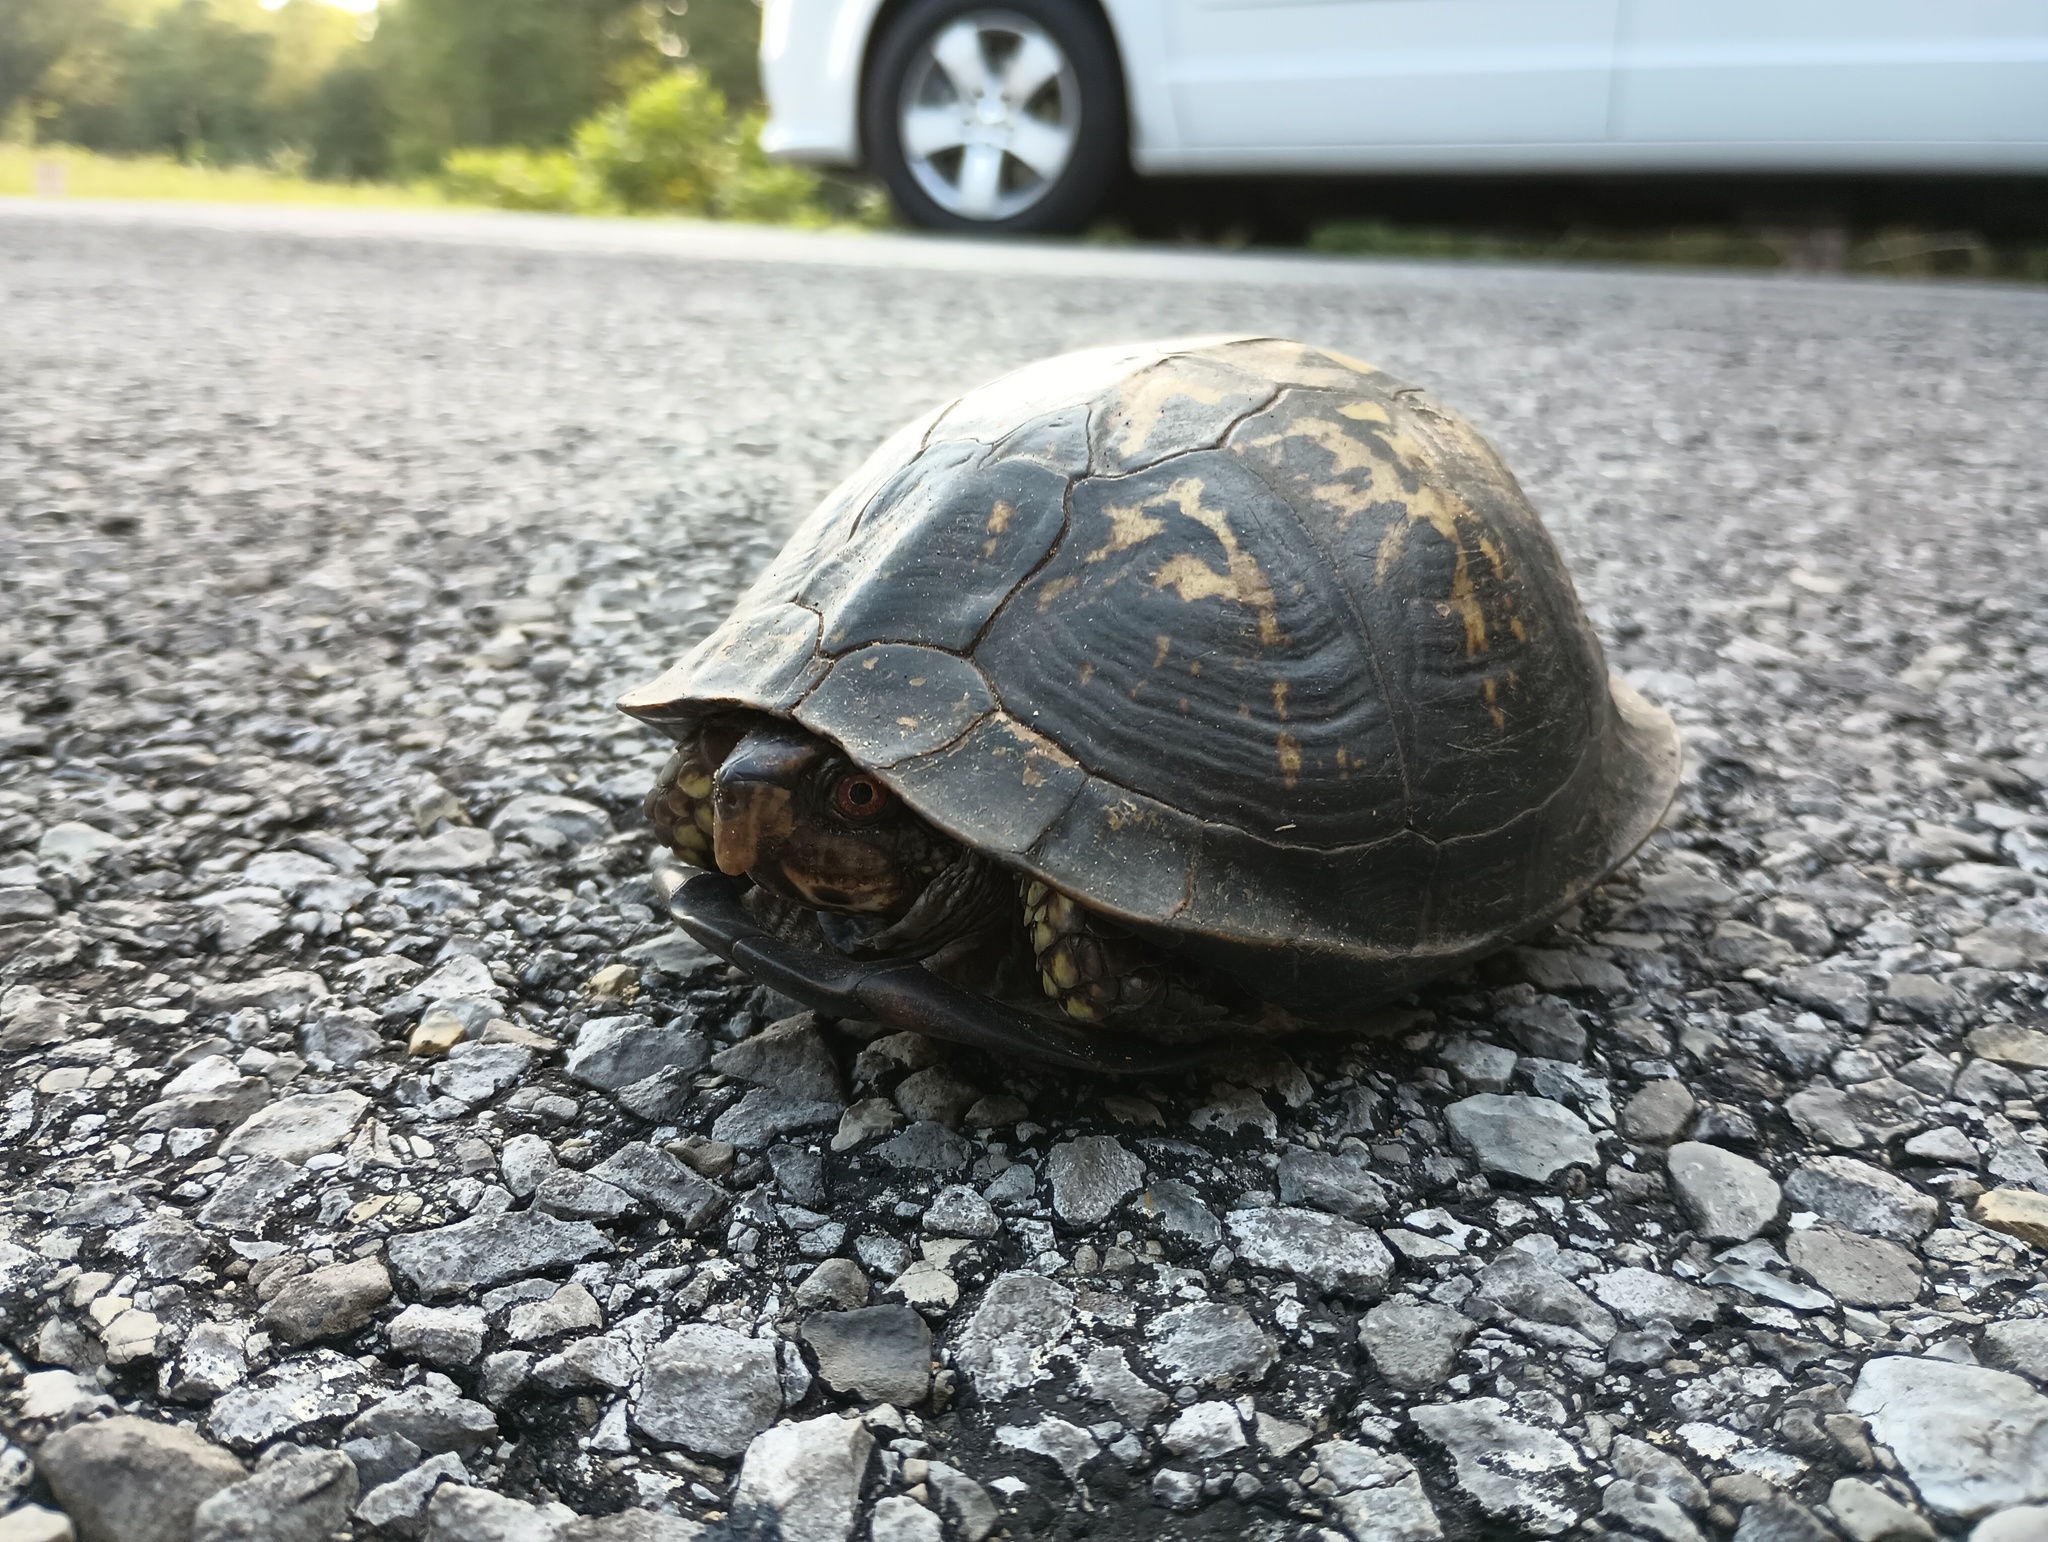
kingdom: Animalia
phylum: Chordata
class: Testudines
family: Emydidae
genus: Terrapene
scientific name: Terrapene carolina
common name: Common box turtle
